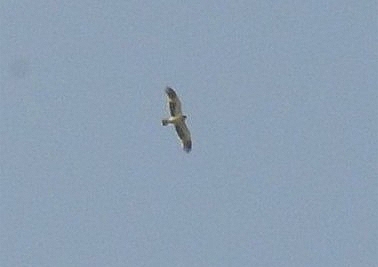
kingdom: Animalia
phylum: Chordata
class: Aves
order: Accipitriformes
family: Accipitridae
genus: Hieraaetus
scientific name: Hieraaetus pennatus
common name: Booted eagle
